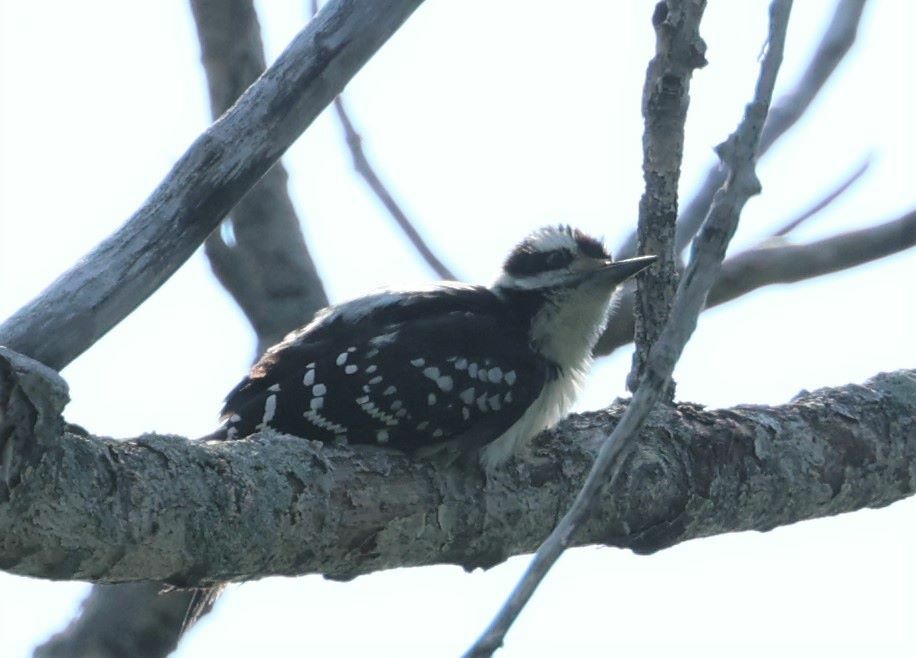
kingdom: Animalia
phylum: Chordata
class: Aves
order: Piciformes
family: Picidae
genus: Leuconotopicus
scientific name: Leuconotopicus villosus
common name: Hairy woodpecker
